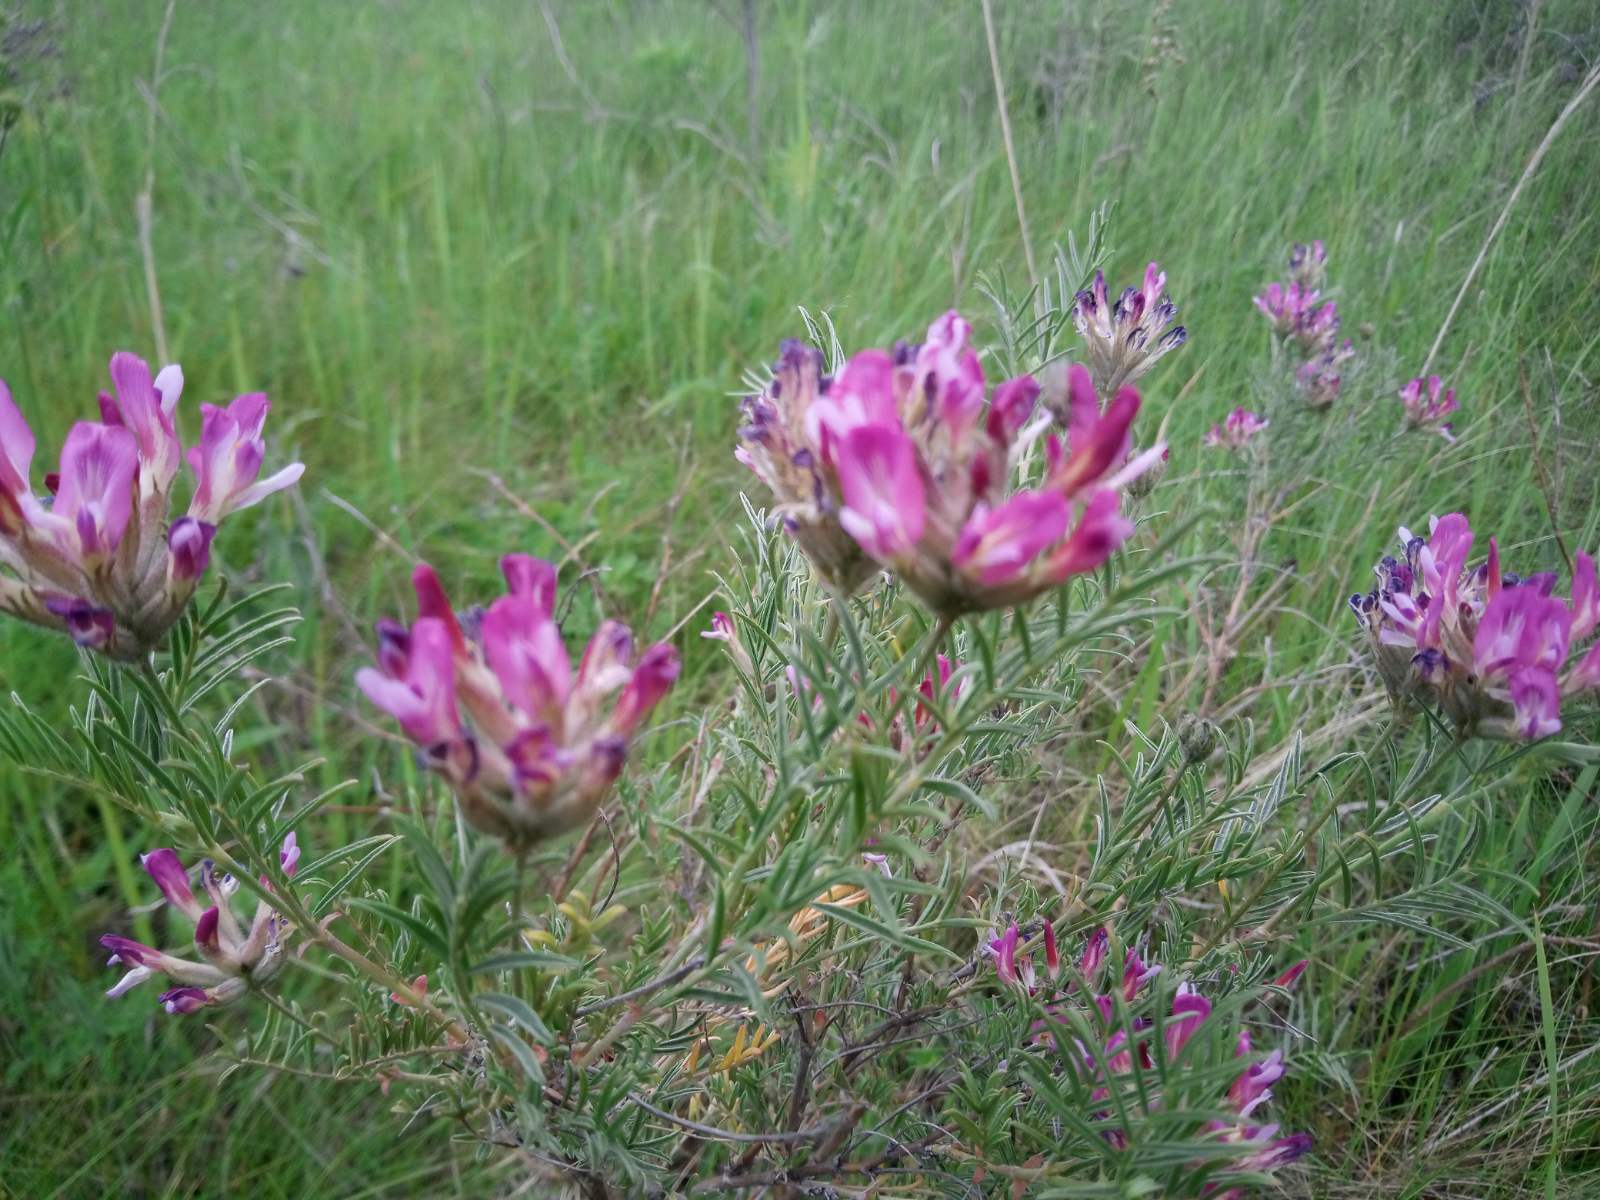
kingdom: Plantae
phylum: Tracheophyta
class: Magnoliopsida
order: Fabales
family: Fabaceae
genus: Astragalus
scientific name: Astragalus cornutus
